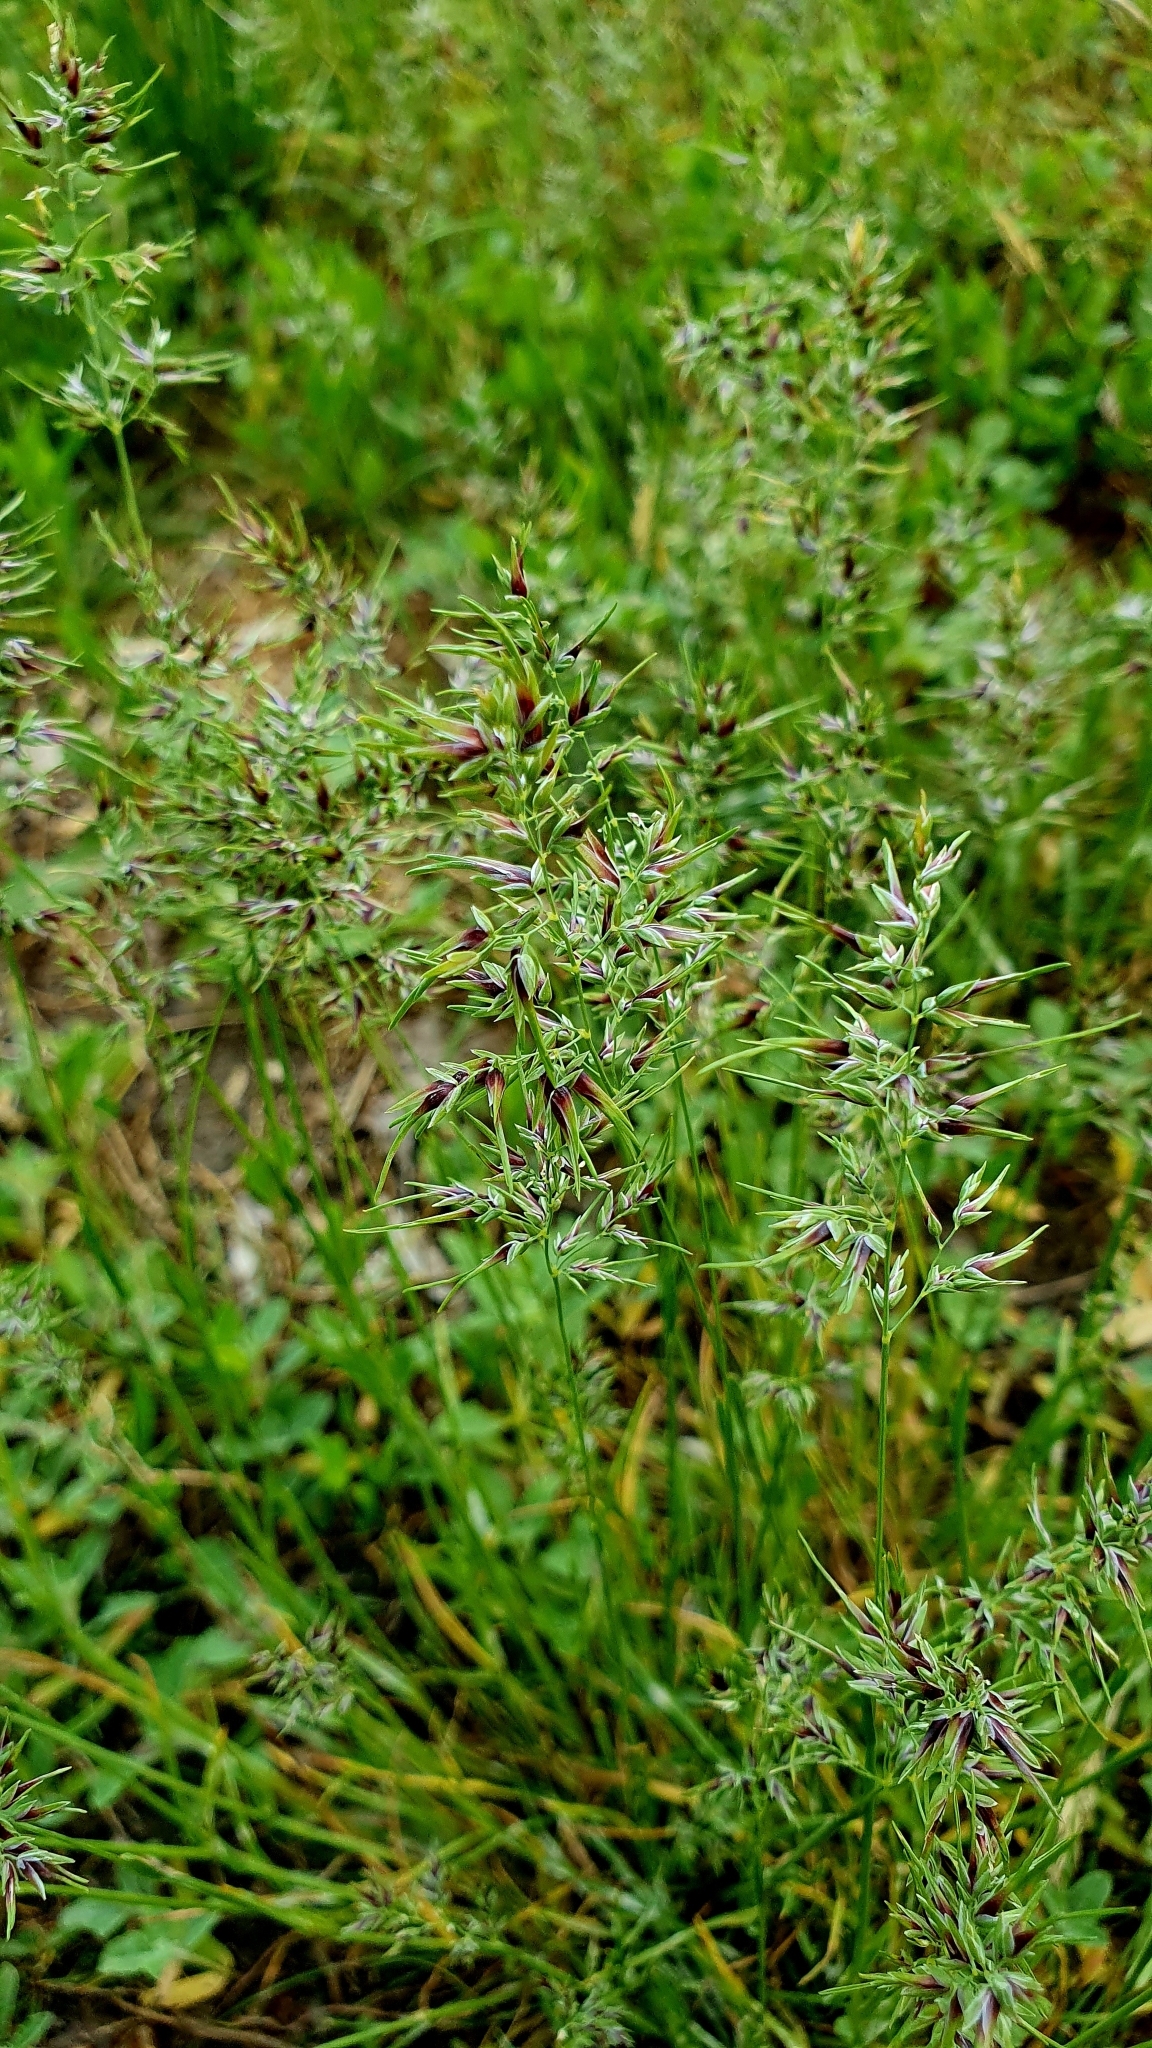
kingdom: Plantae
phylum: Tracheophyta
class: Liliopsida
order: Poales
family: Poaceae
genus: Poa
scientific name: Poa bulbosa
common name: Bulbous bluegrass
